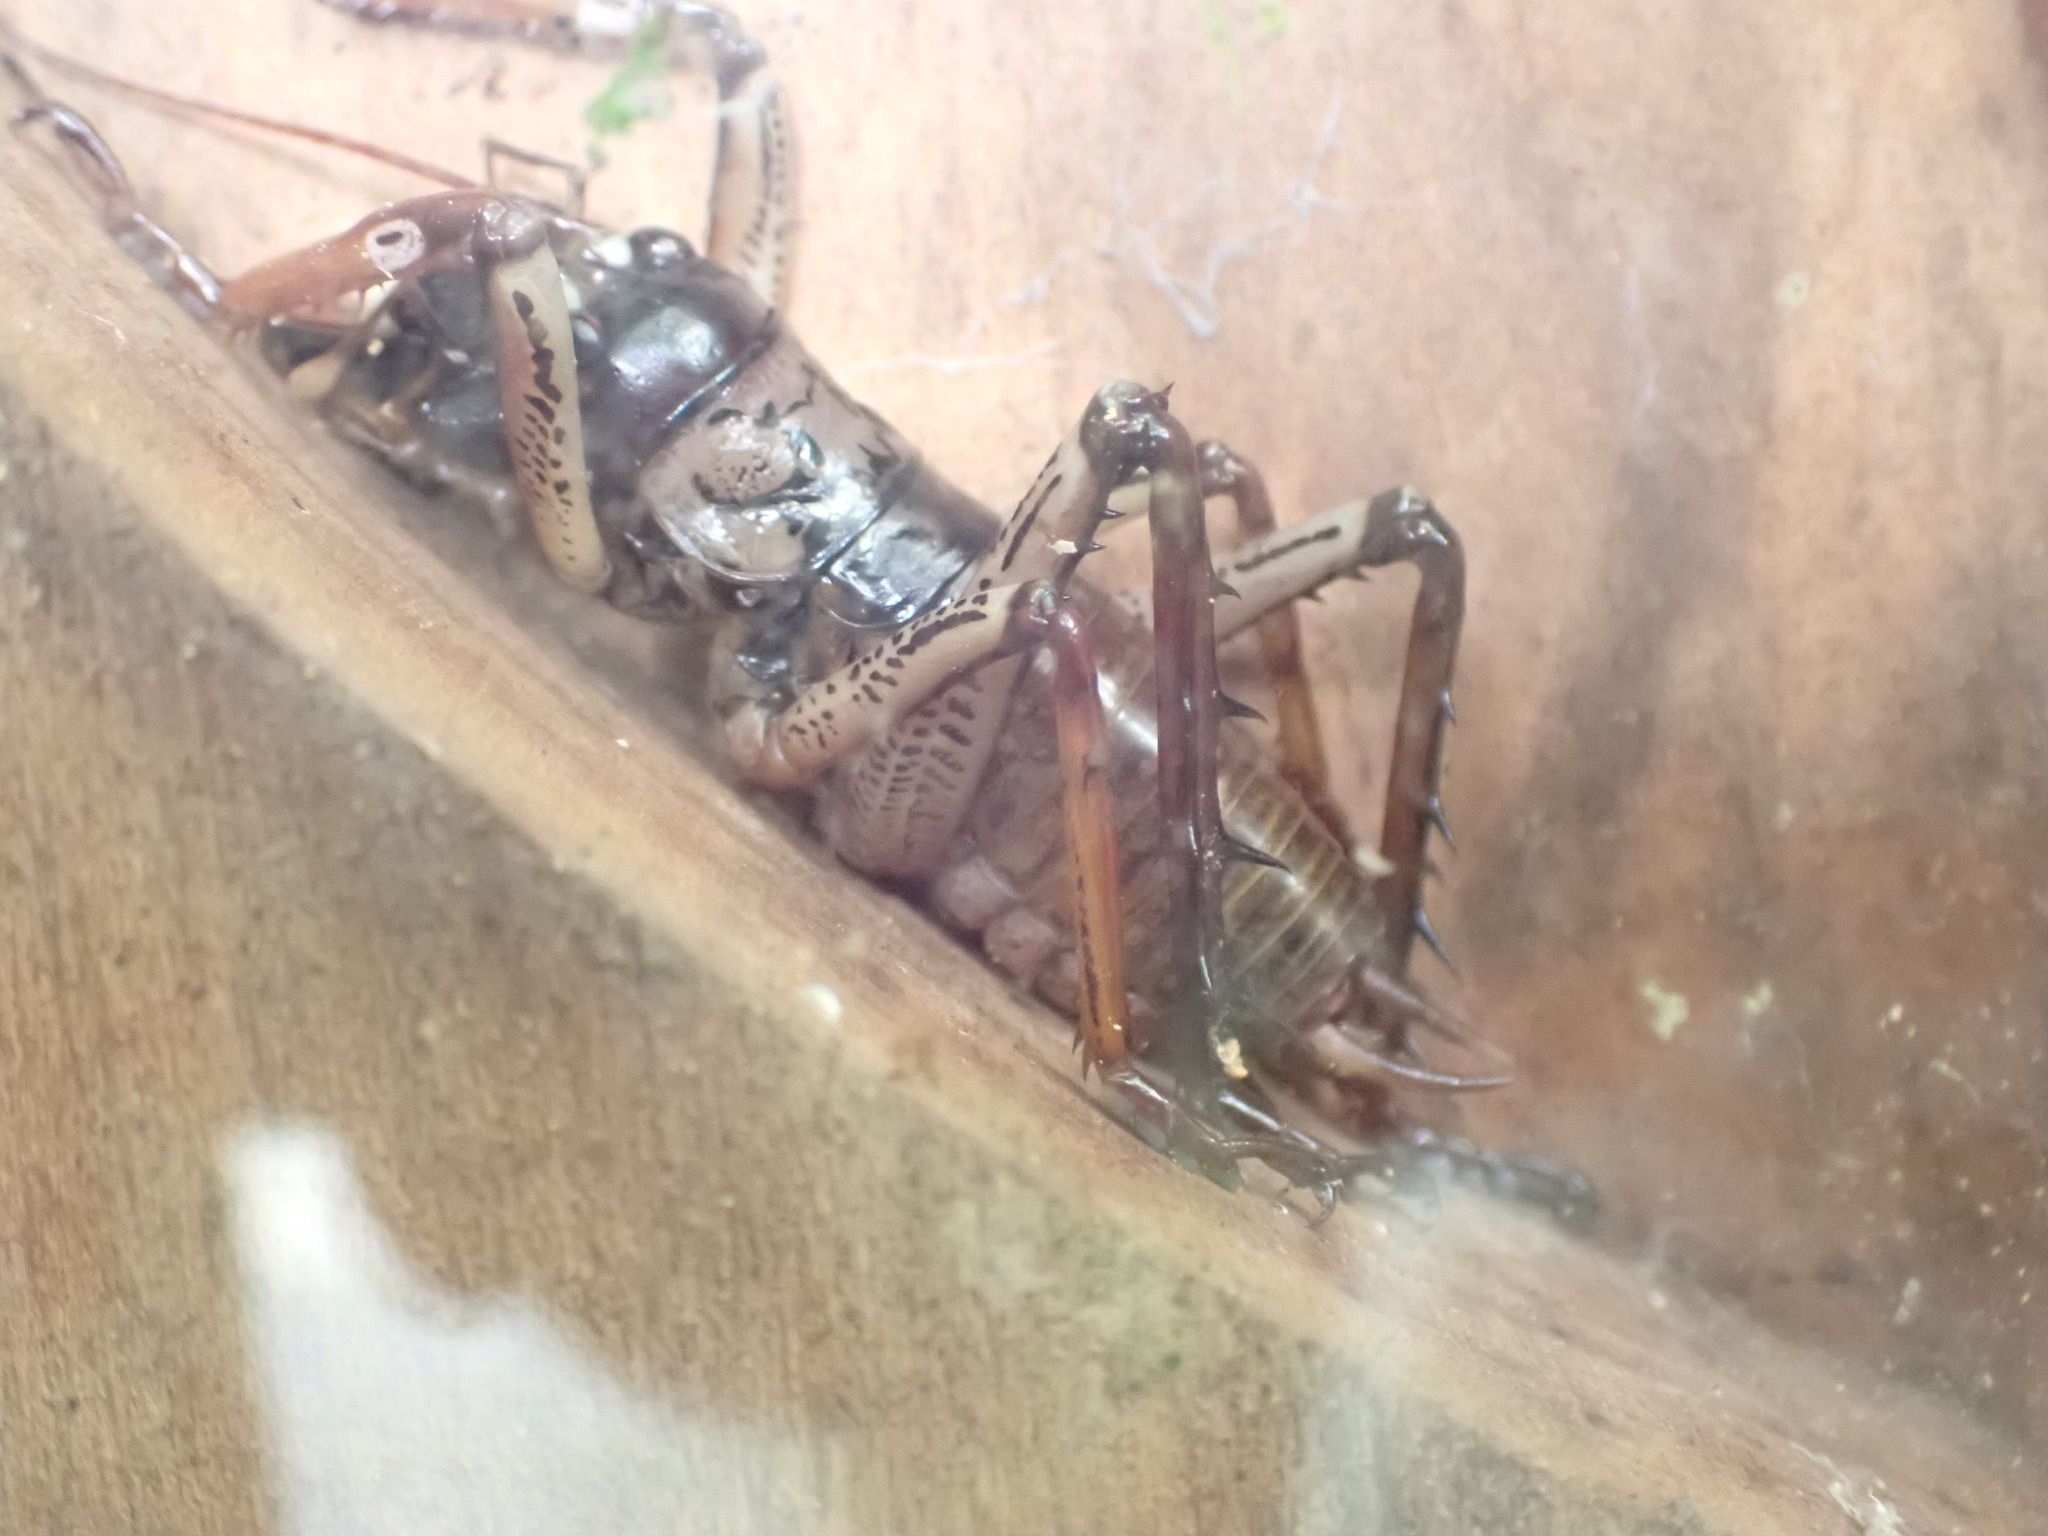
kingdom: Animalia
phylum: Arthropoda
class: Insecta
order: Orthoptera
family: Anostostomatidae
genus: Hemideina
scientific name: Hemideina thoracica
